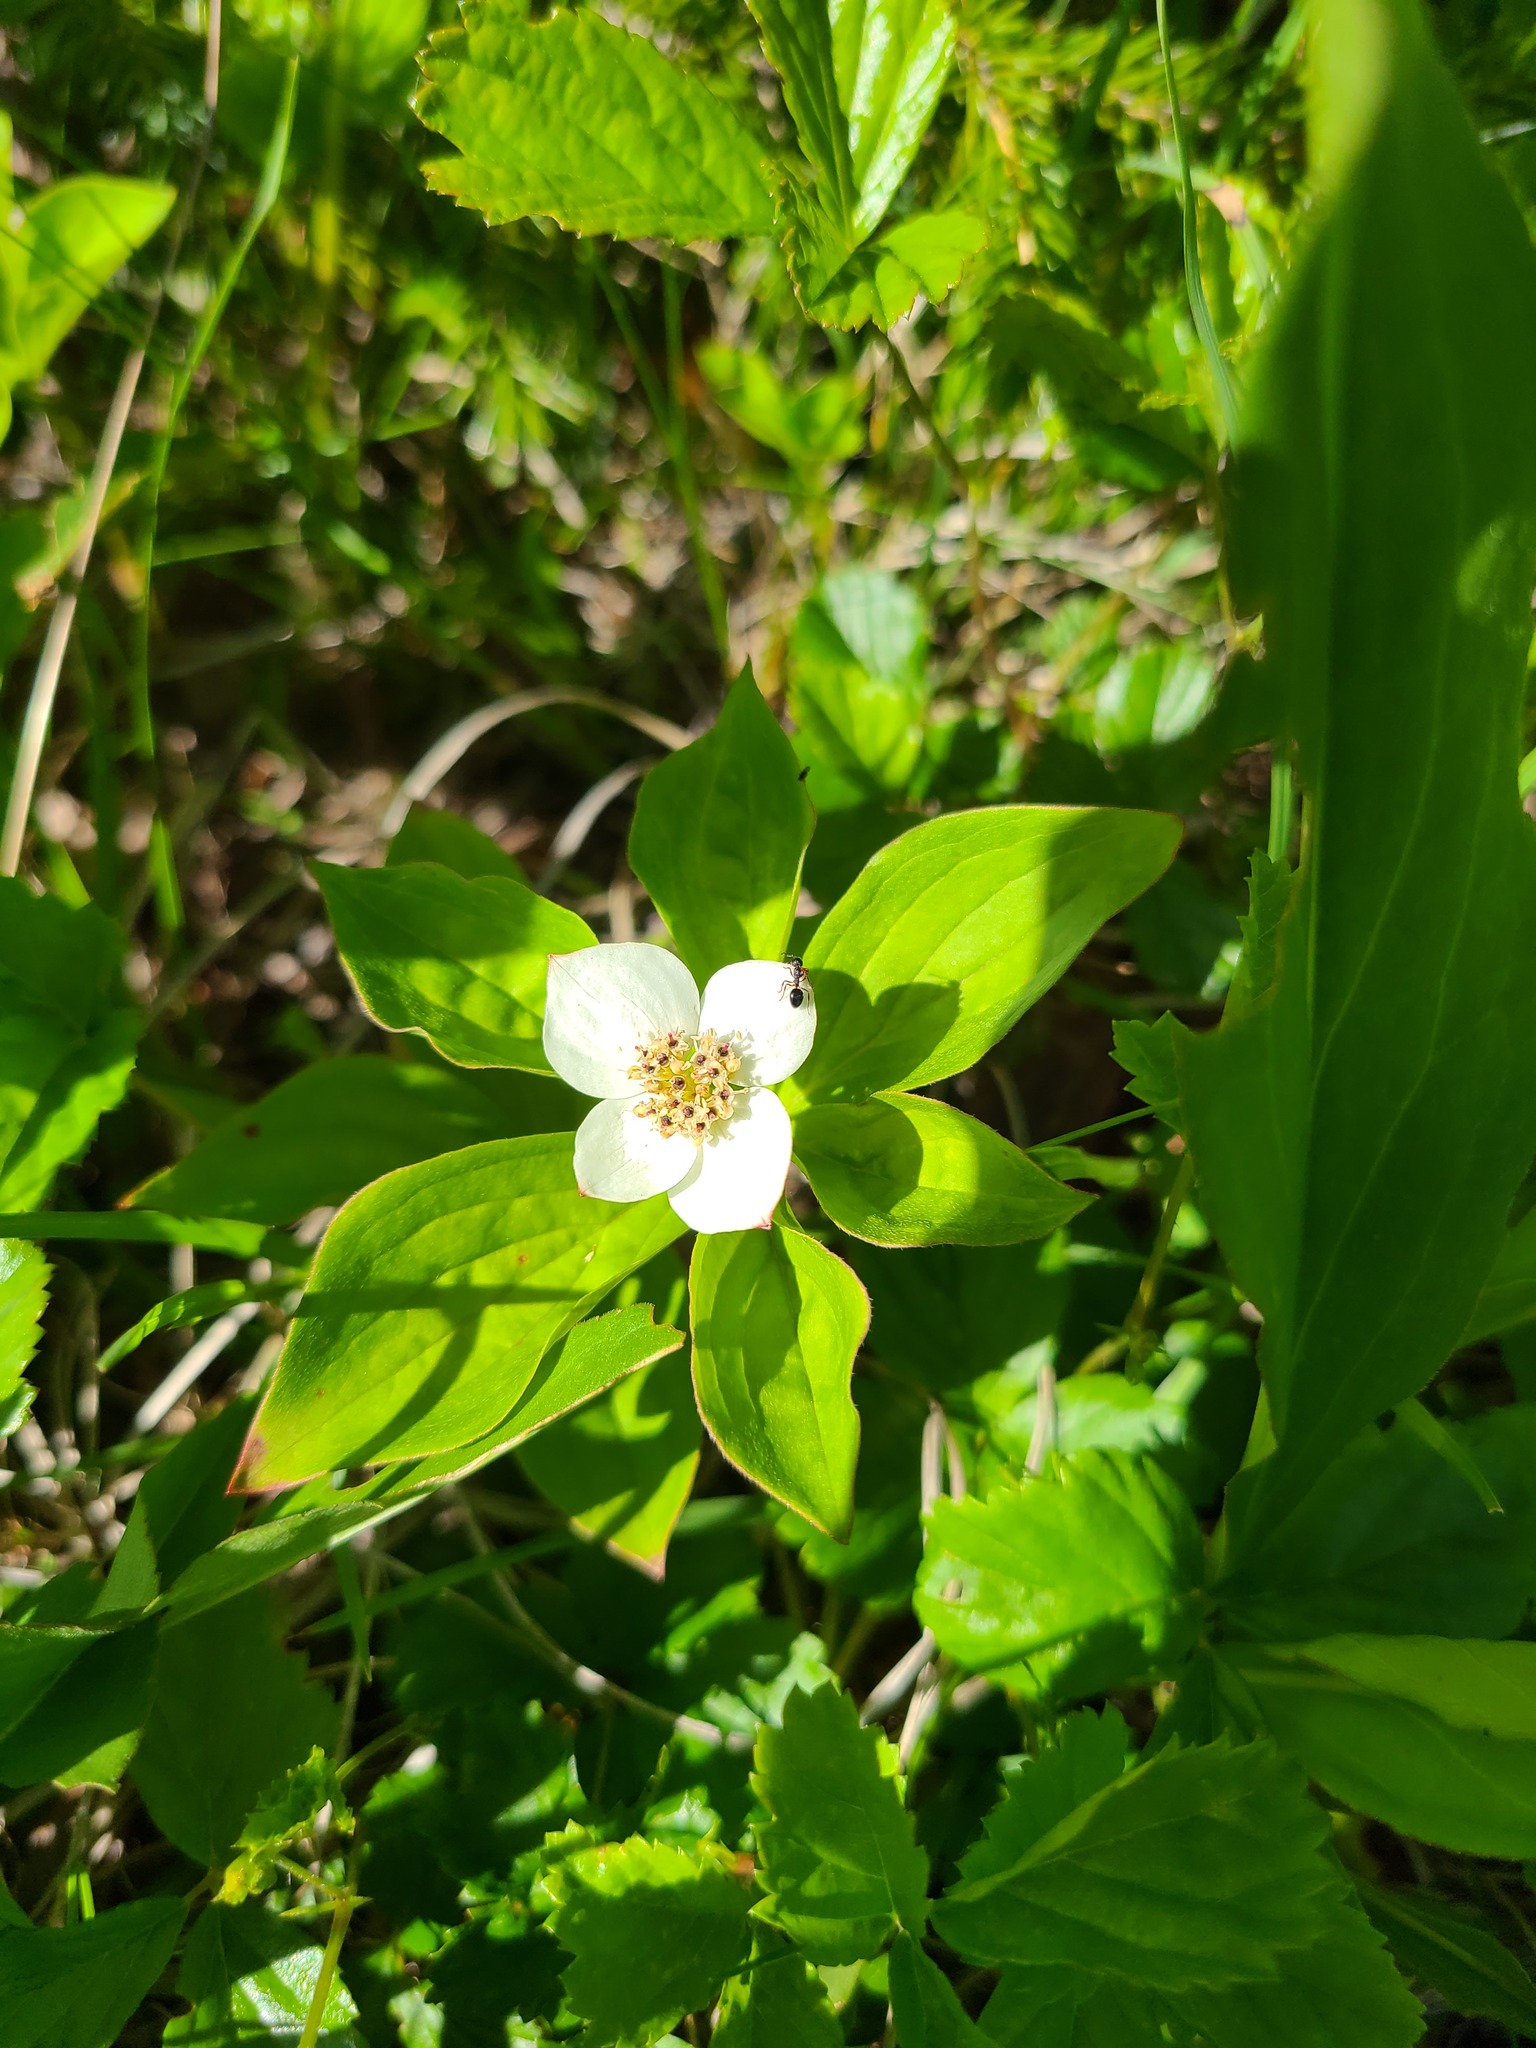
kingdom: Plantae
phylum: Tracheophyta
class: Magnoliopsida
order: Cornales
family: Cornaceae
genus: Cornus
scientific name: Cornus canadensis
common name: Creeping dogwood
